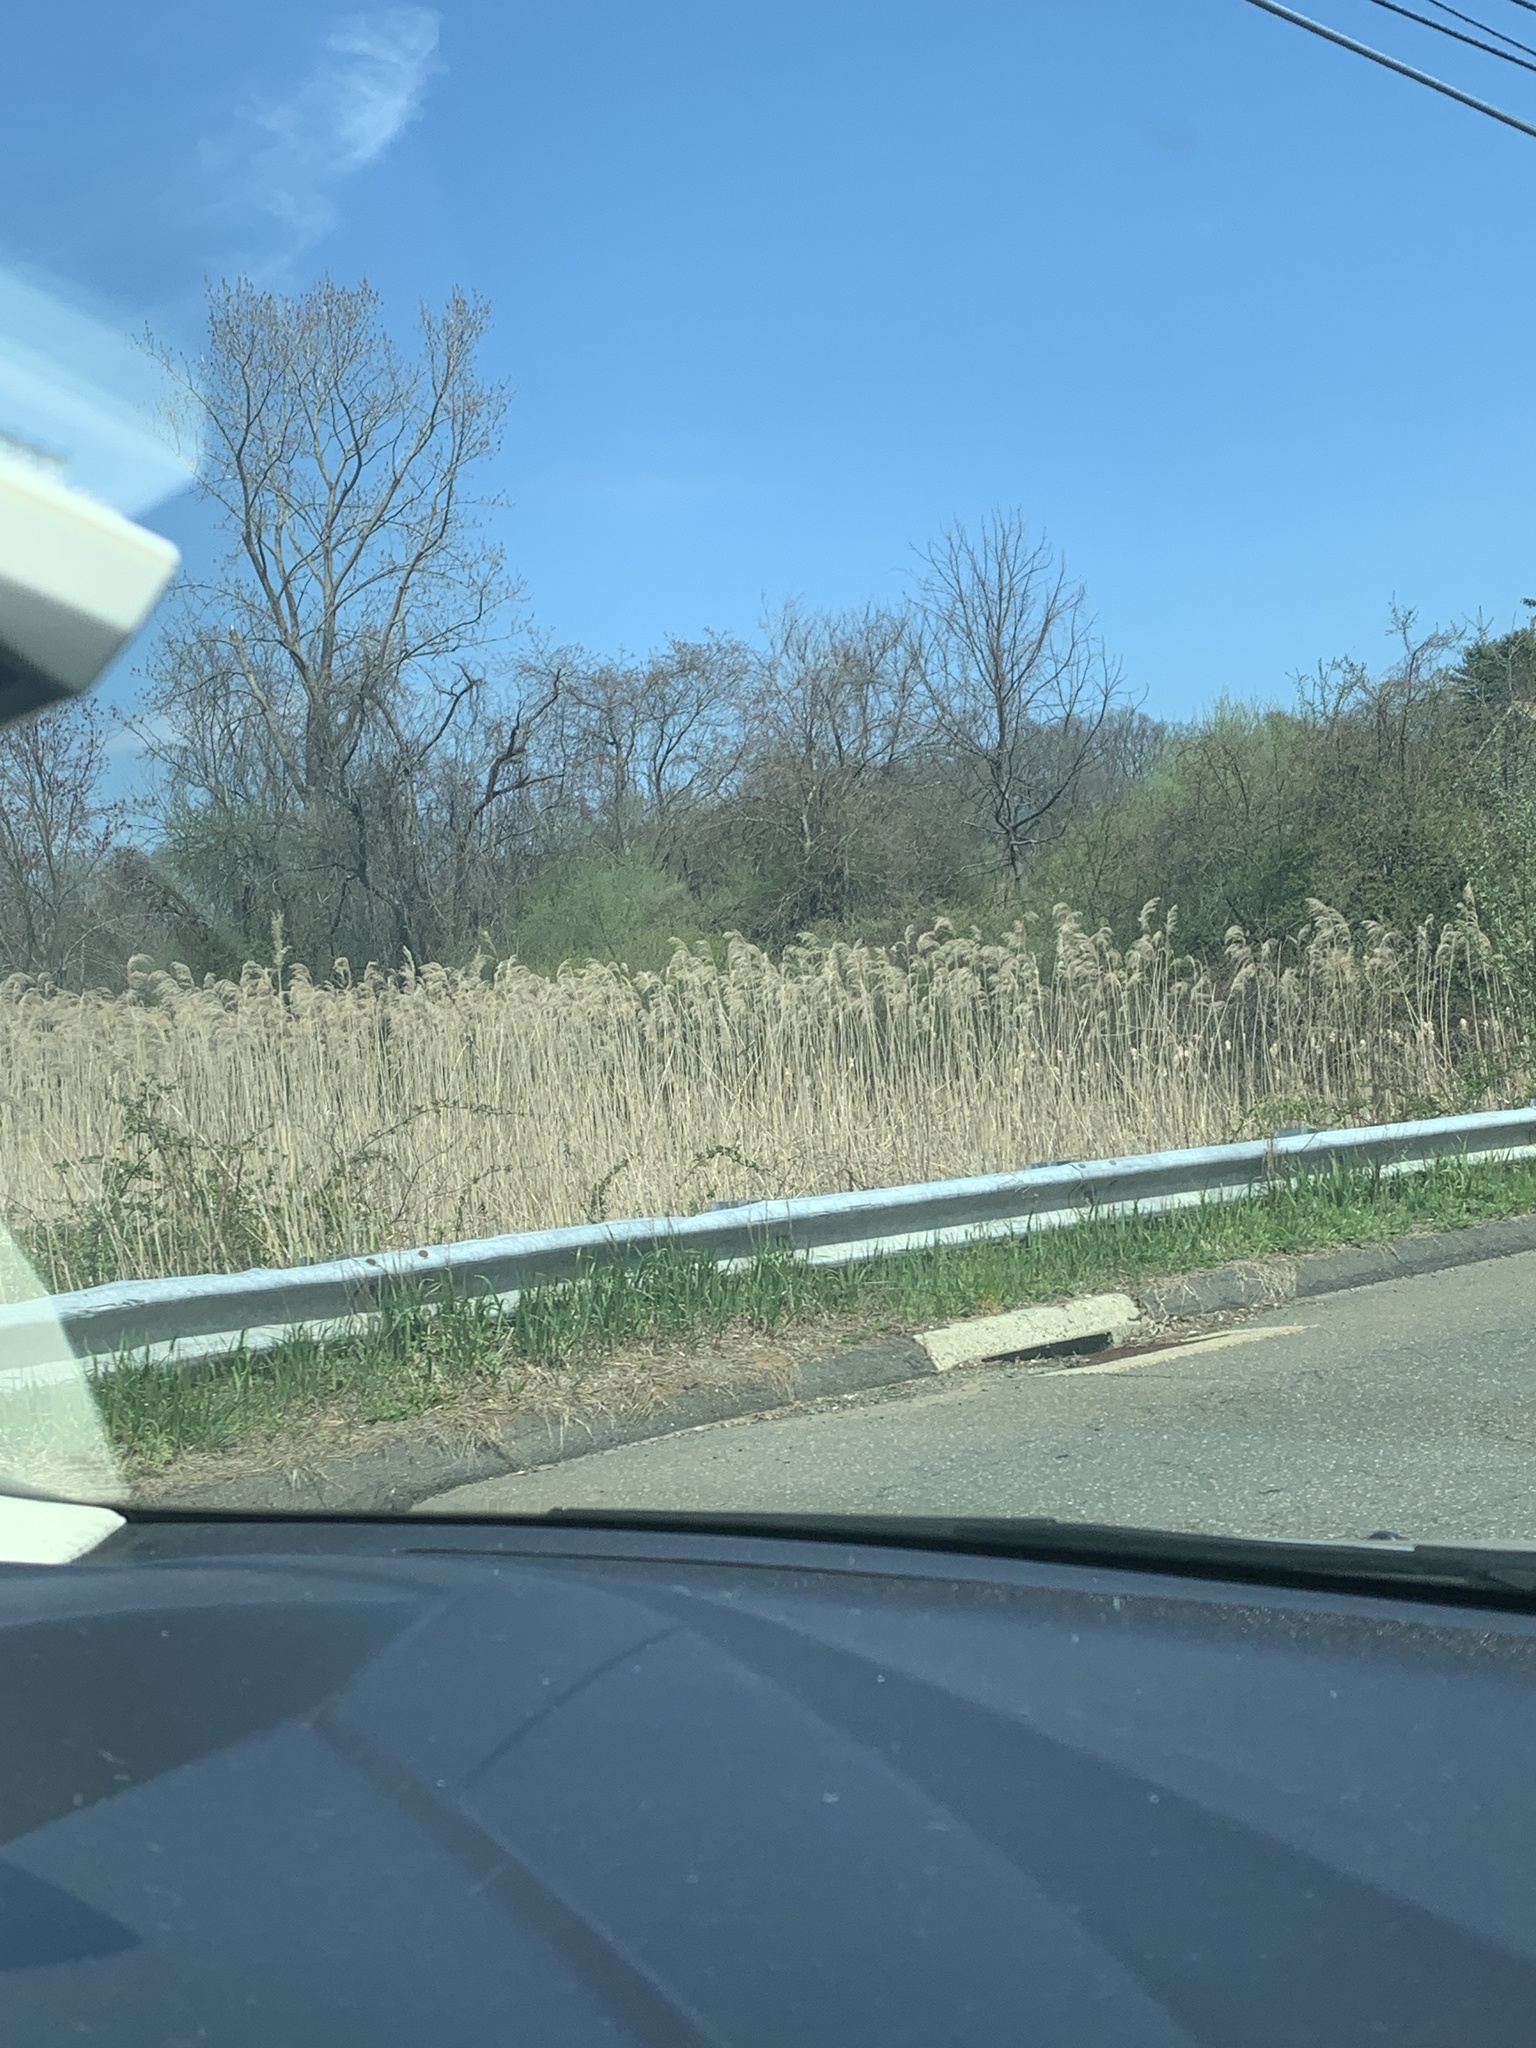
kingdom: Plantae
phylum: Tracheophyta
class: Liliopsida
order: Poales
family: Poaceae
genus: Phragmites
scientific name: Phragmites australis
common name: Common reed
